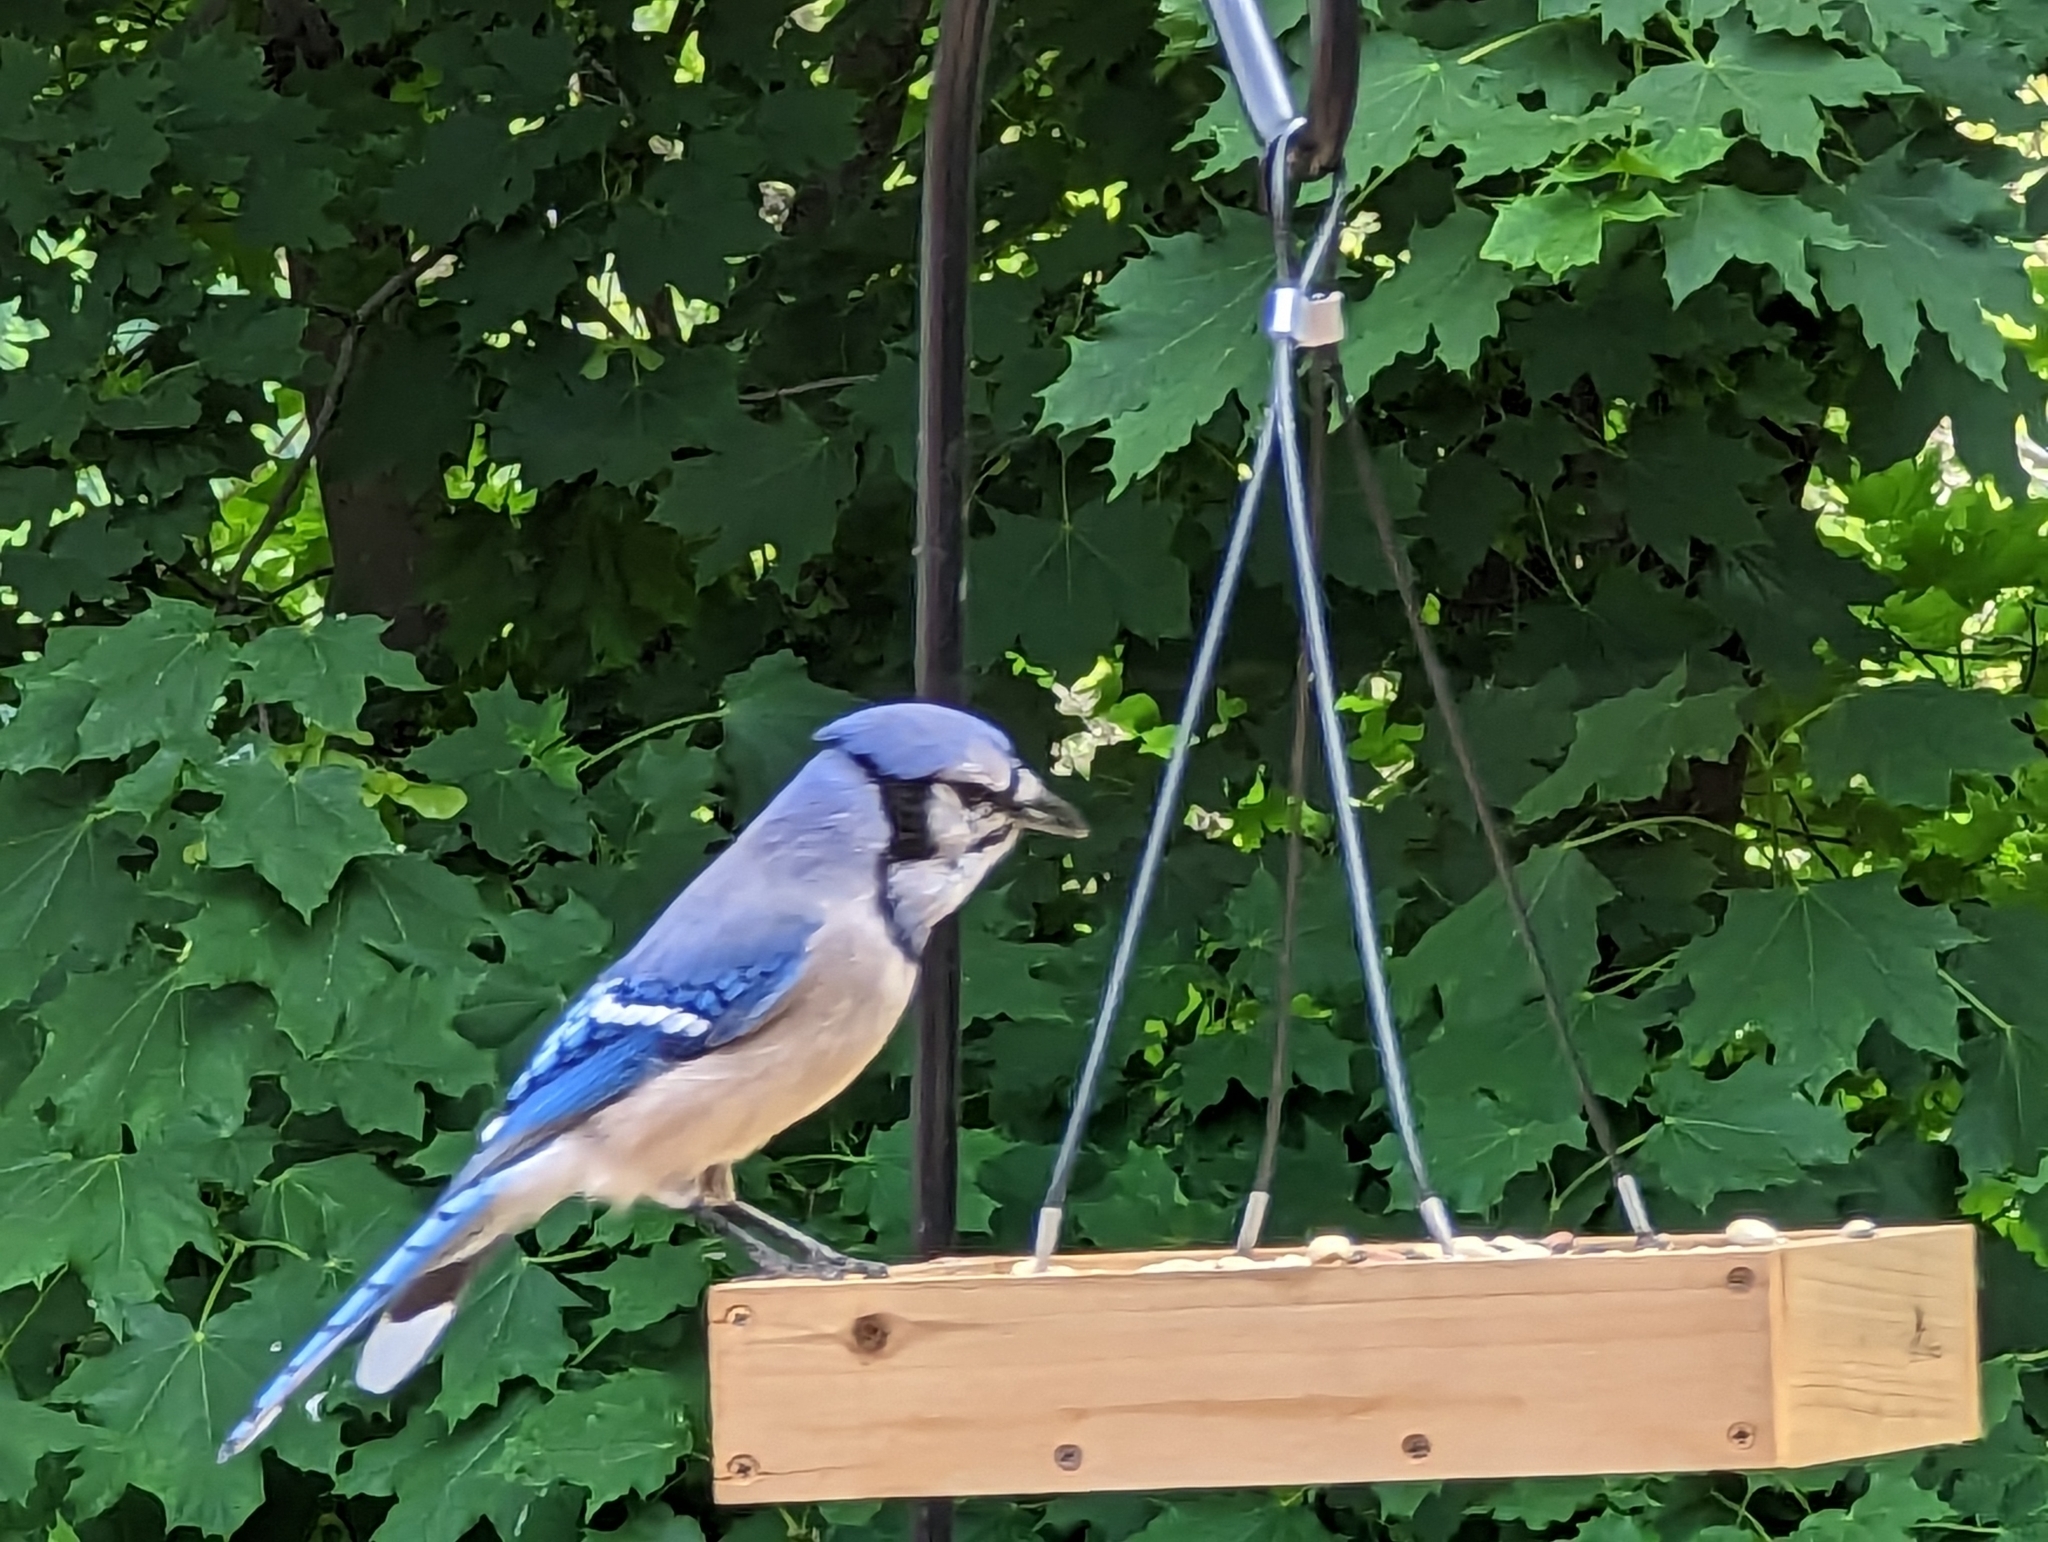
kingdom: Animalia
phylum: Chordata
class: Aves
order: Passeriformes
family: Corvidae
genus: Cyanocitta
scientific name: Cyanocitta cristata
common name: Blue jay
